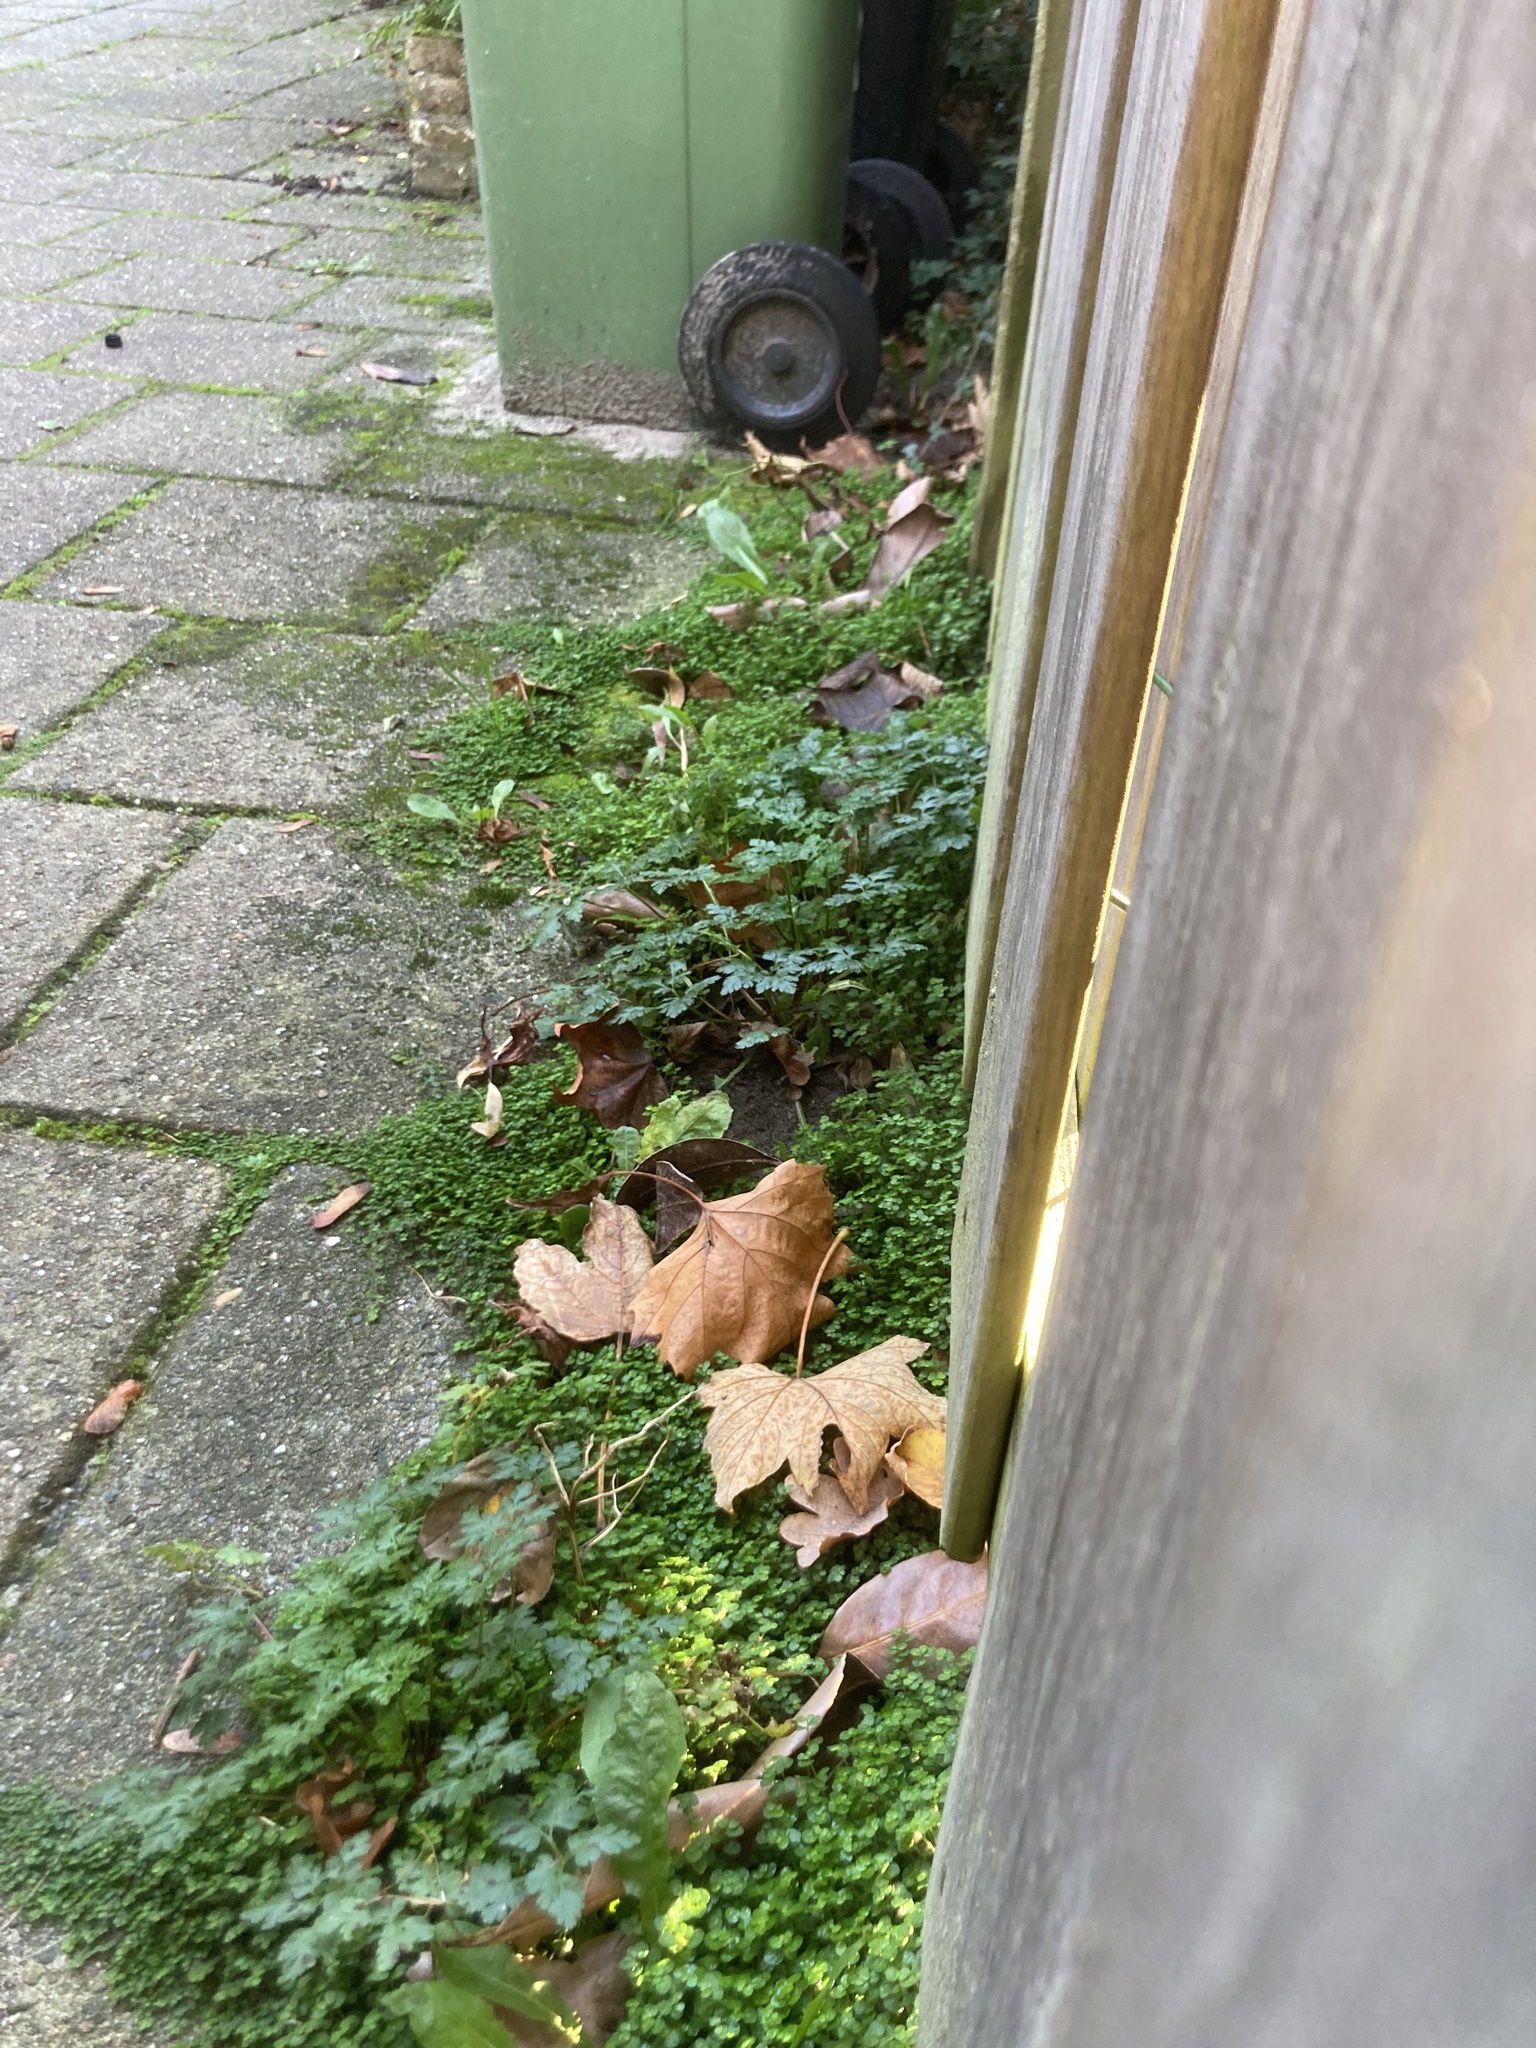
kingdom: Plantae
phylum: Tracheophyta
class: Magnoliopsida
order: Rosales
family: Urticaceae
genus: Soleirolia
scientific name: Soleirolia soleirolii
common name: Mind-your-own-business
